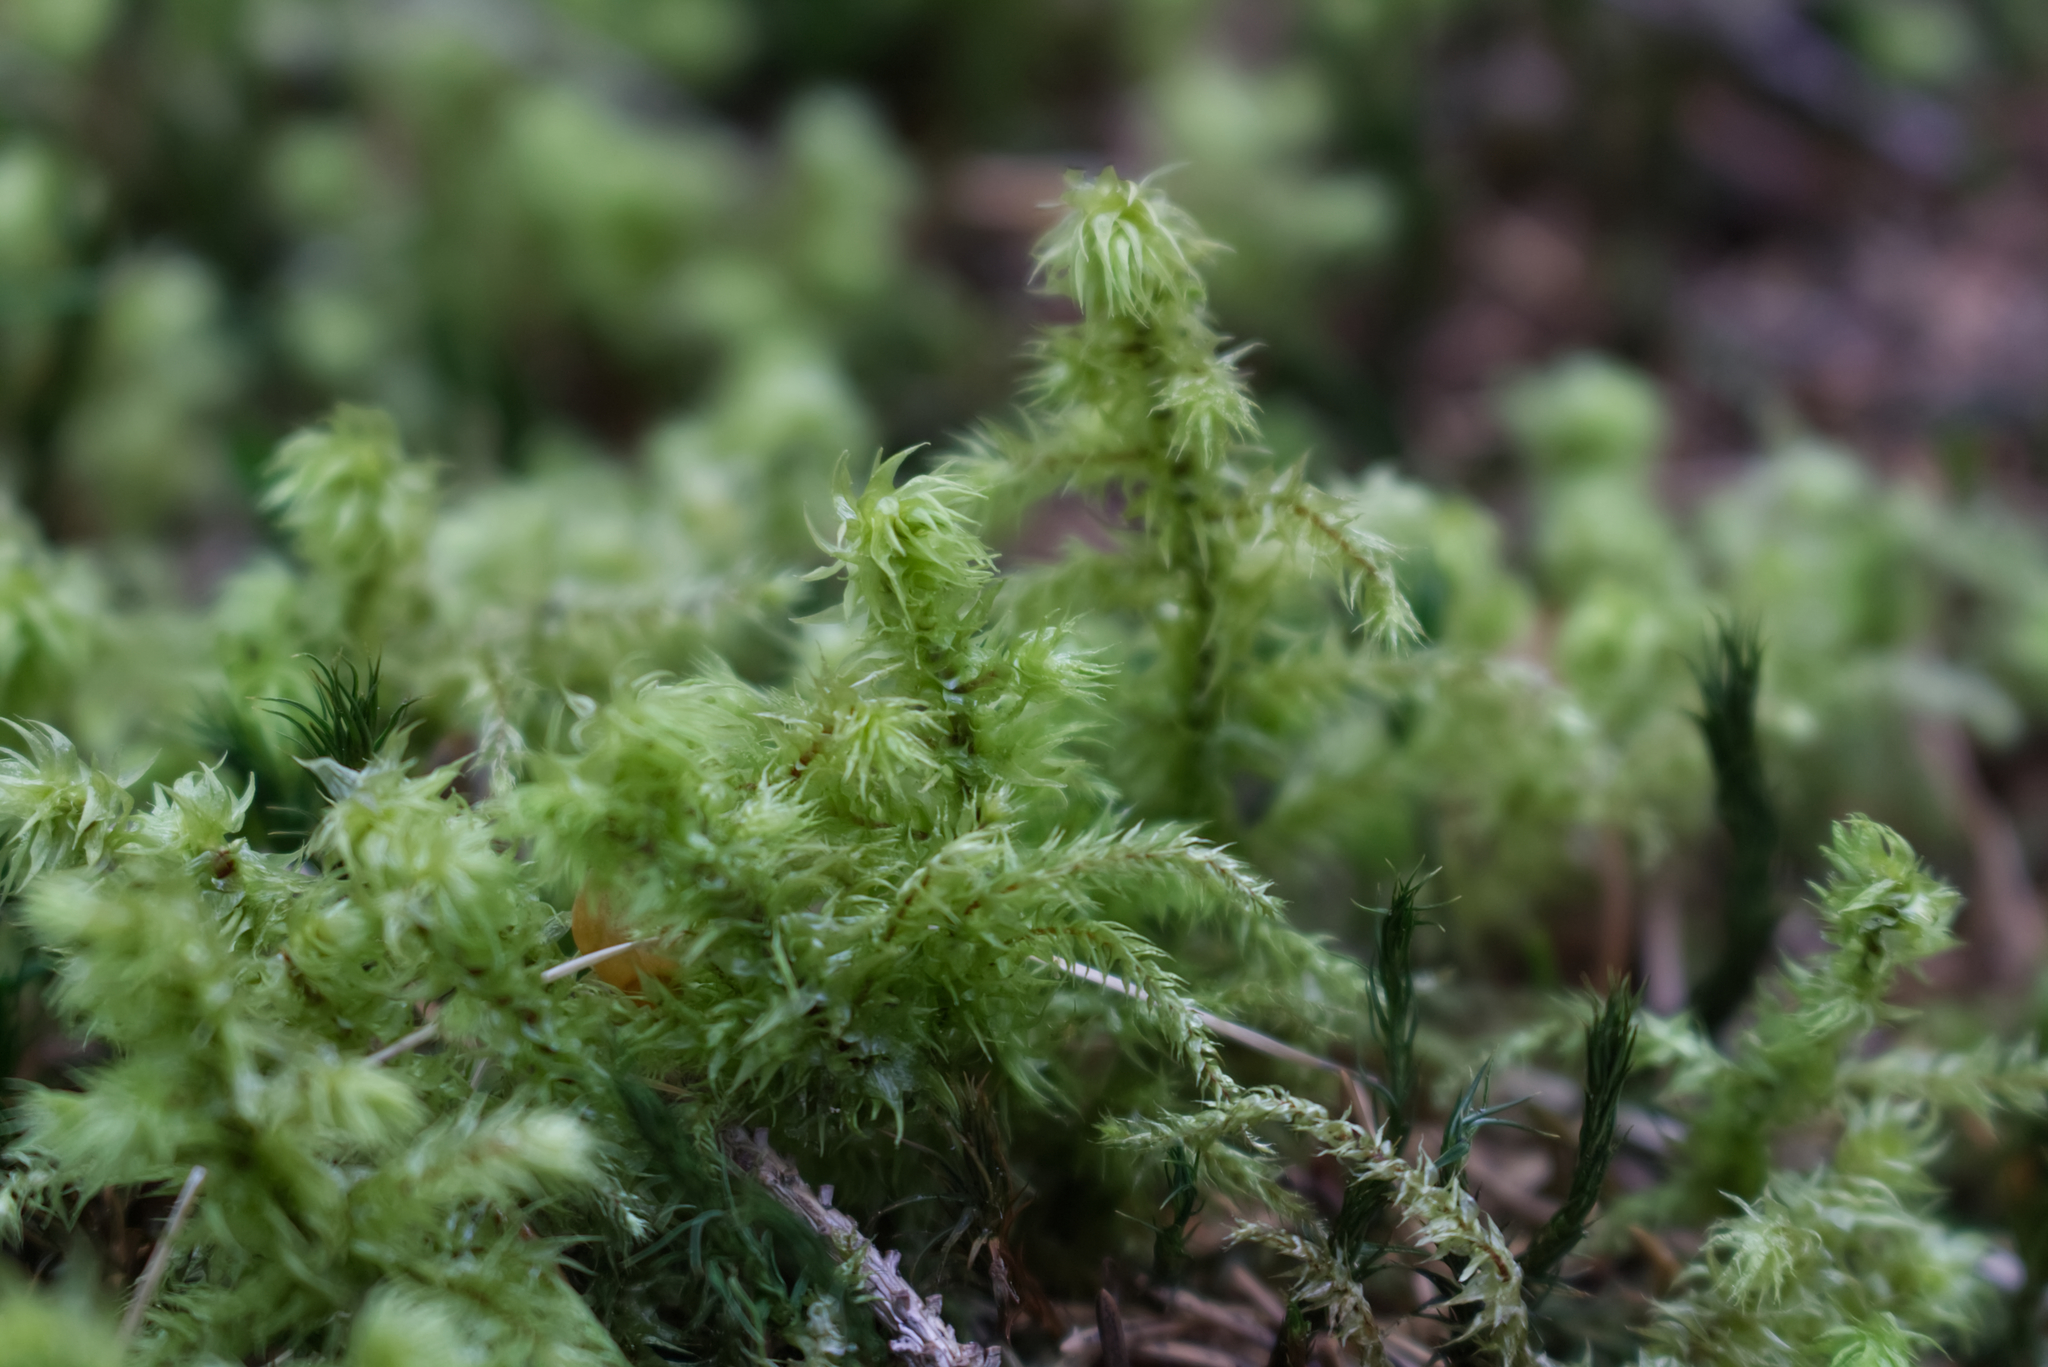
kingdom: Plantae
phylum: Bryophyta
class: Bryopsida
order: Hypnales
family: Hylocomiaceae
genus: Hylocomiadelphus
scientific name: Hylocomiadelphus triquetrus
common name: Rough goose neck moss
